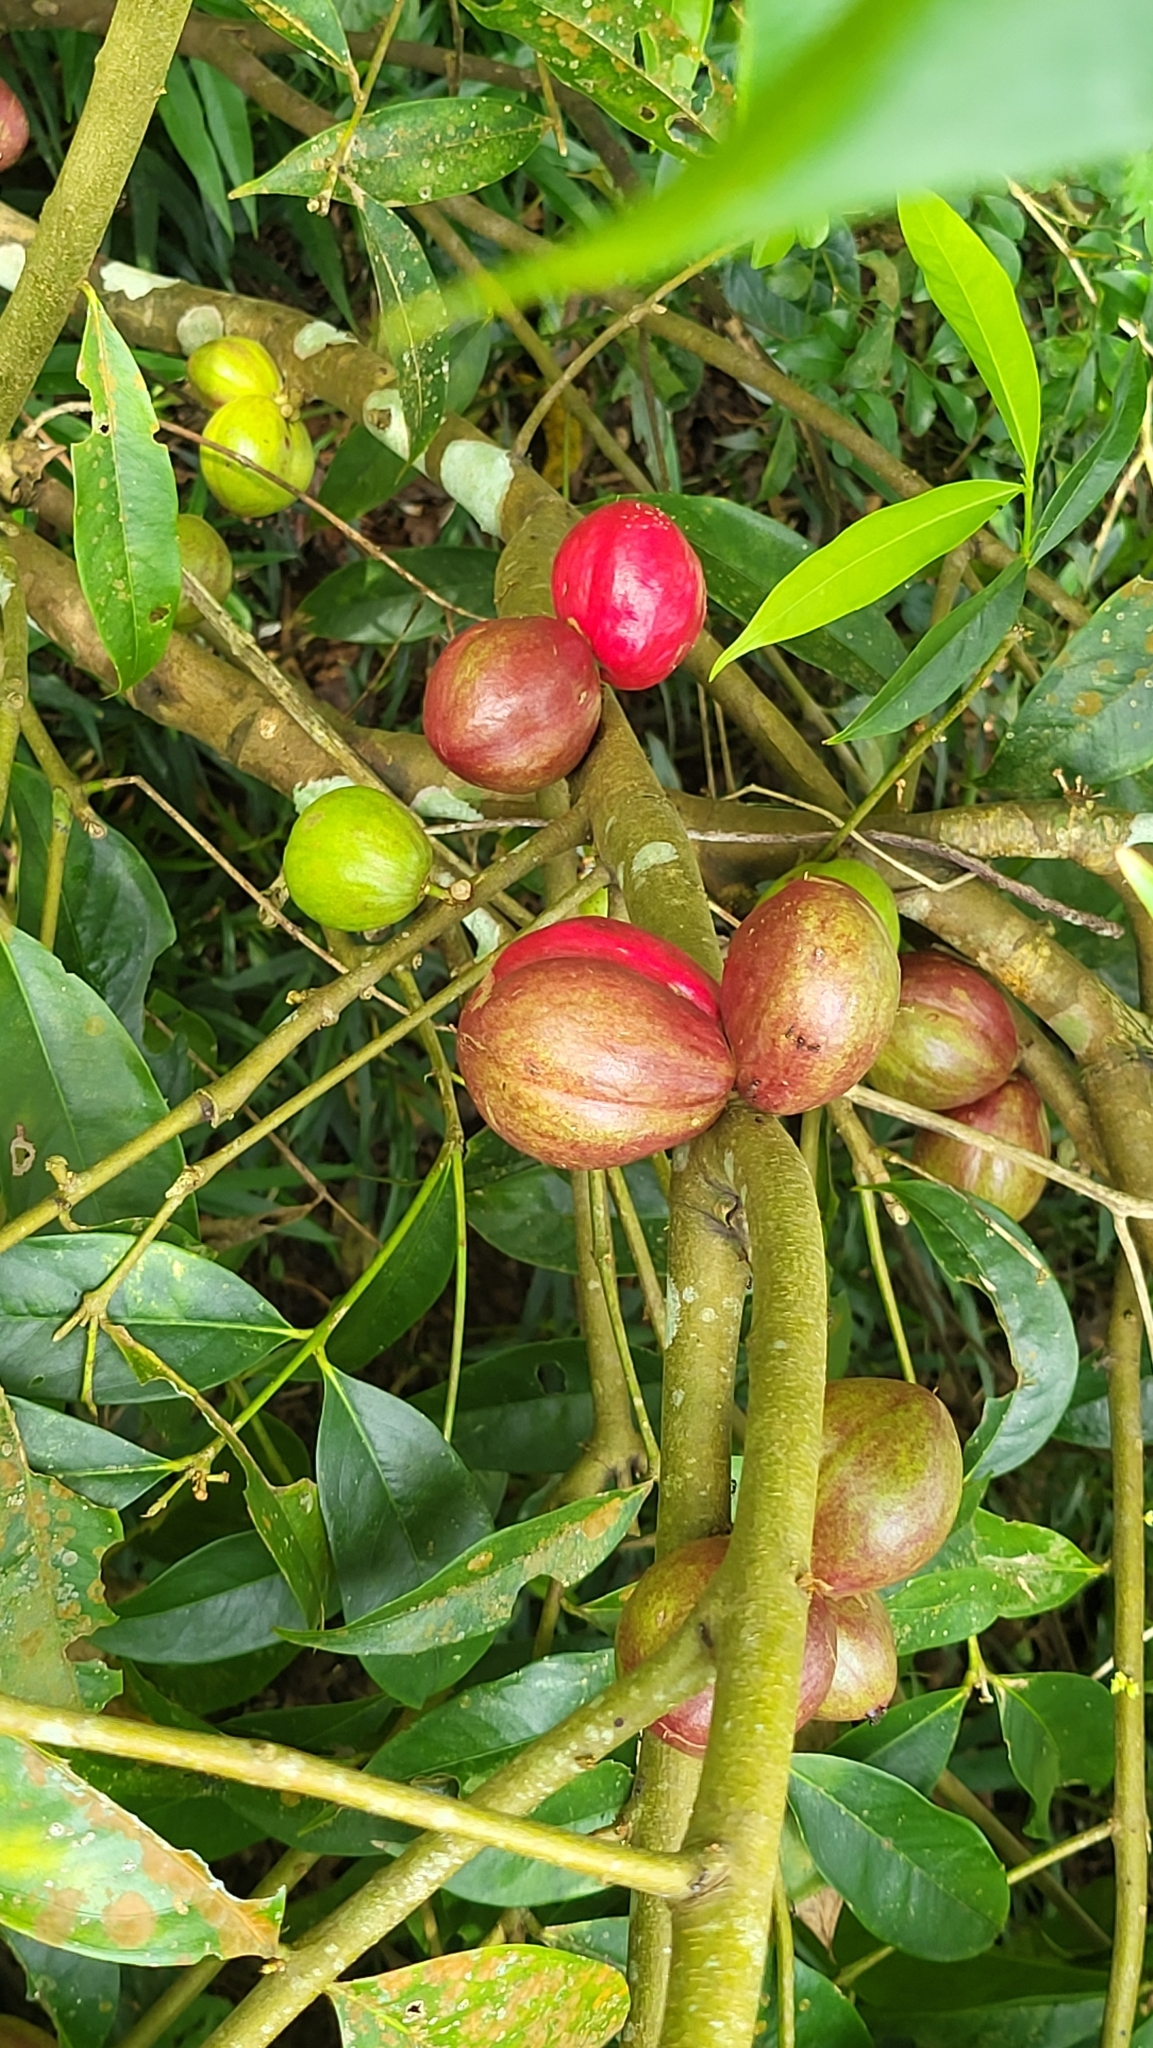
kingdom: Plantae
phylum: Tracheophyta
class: Magnoliopsida
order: Malvales
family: Thymelaeaceae
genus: Phaleria
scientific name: Phaleria macrocarpa
